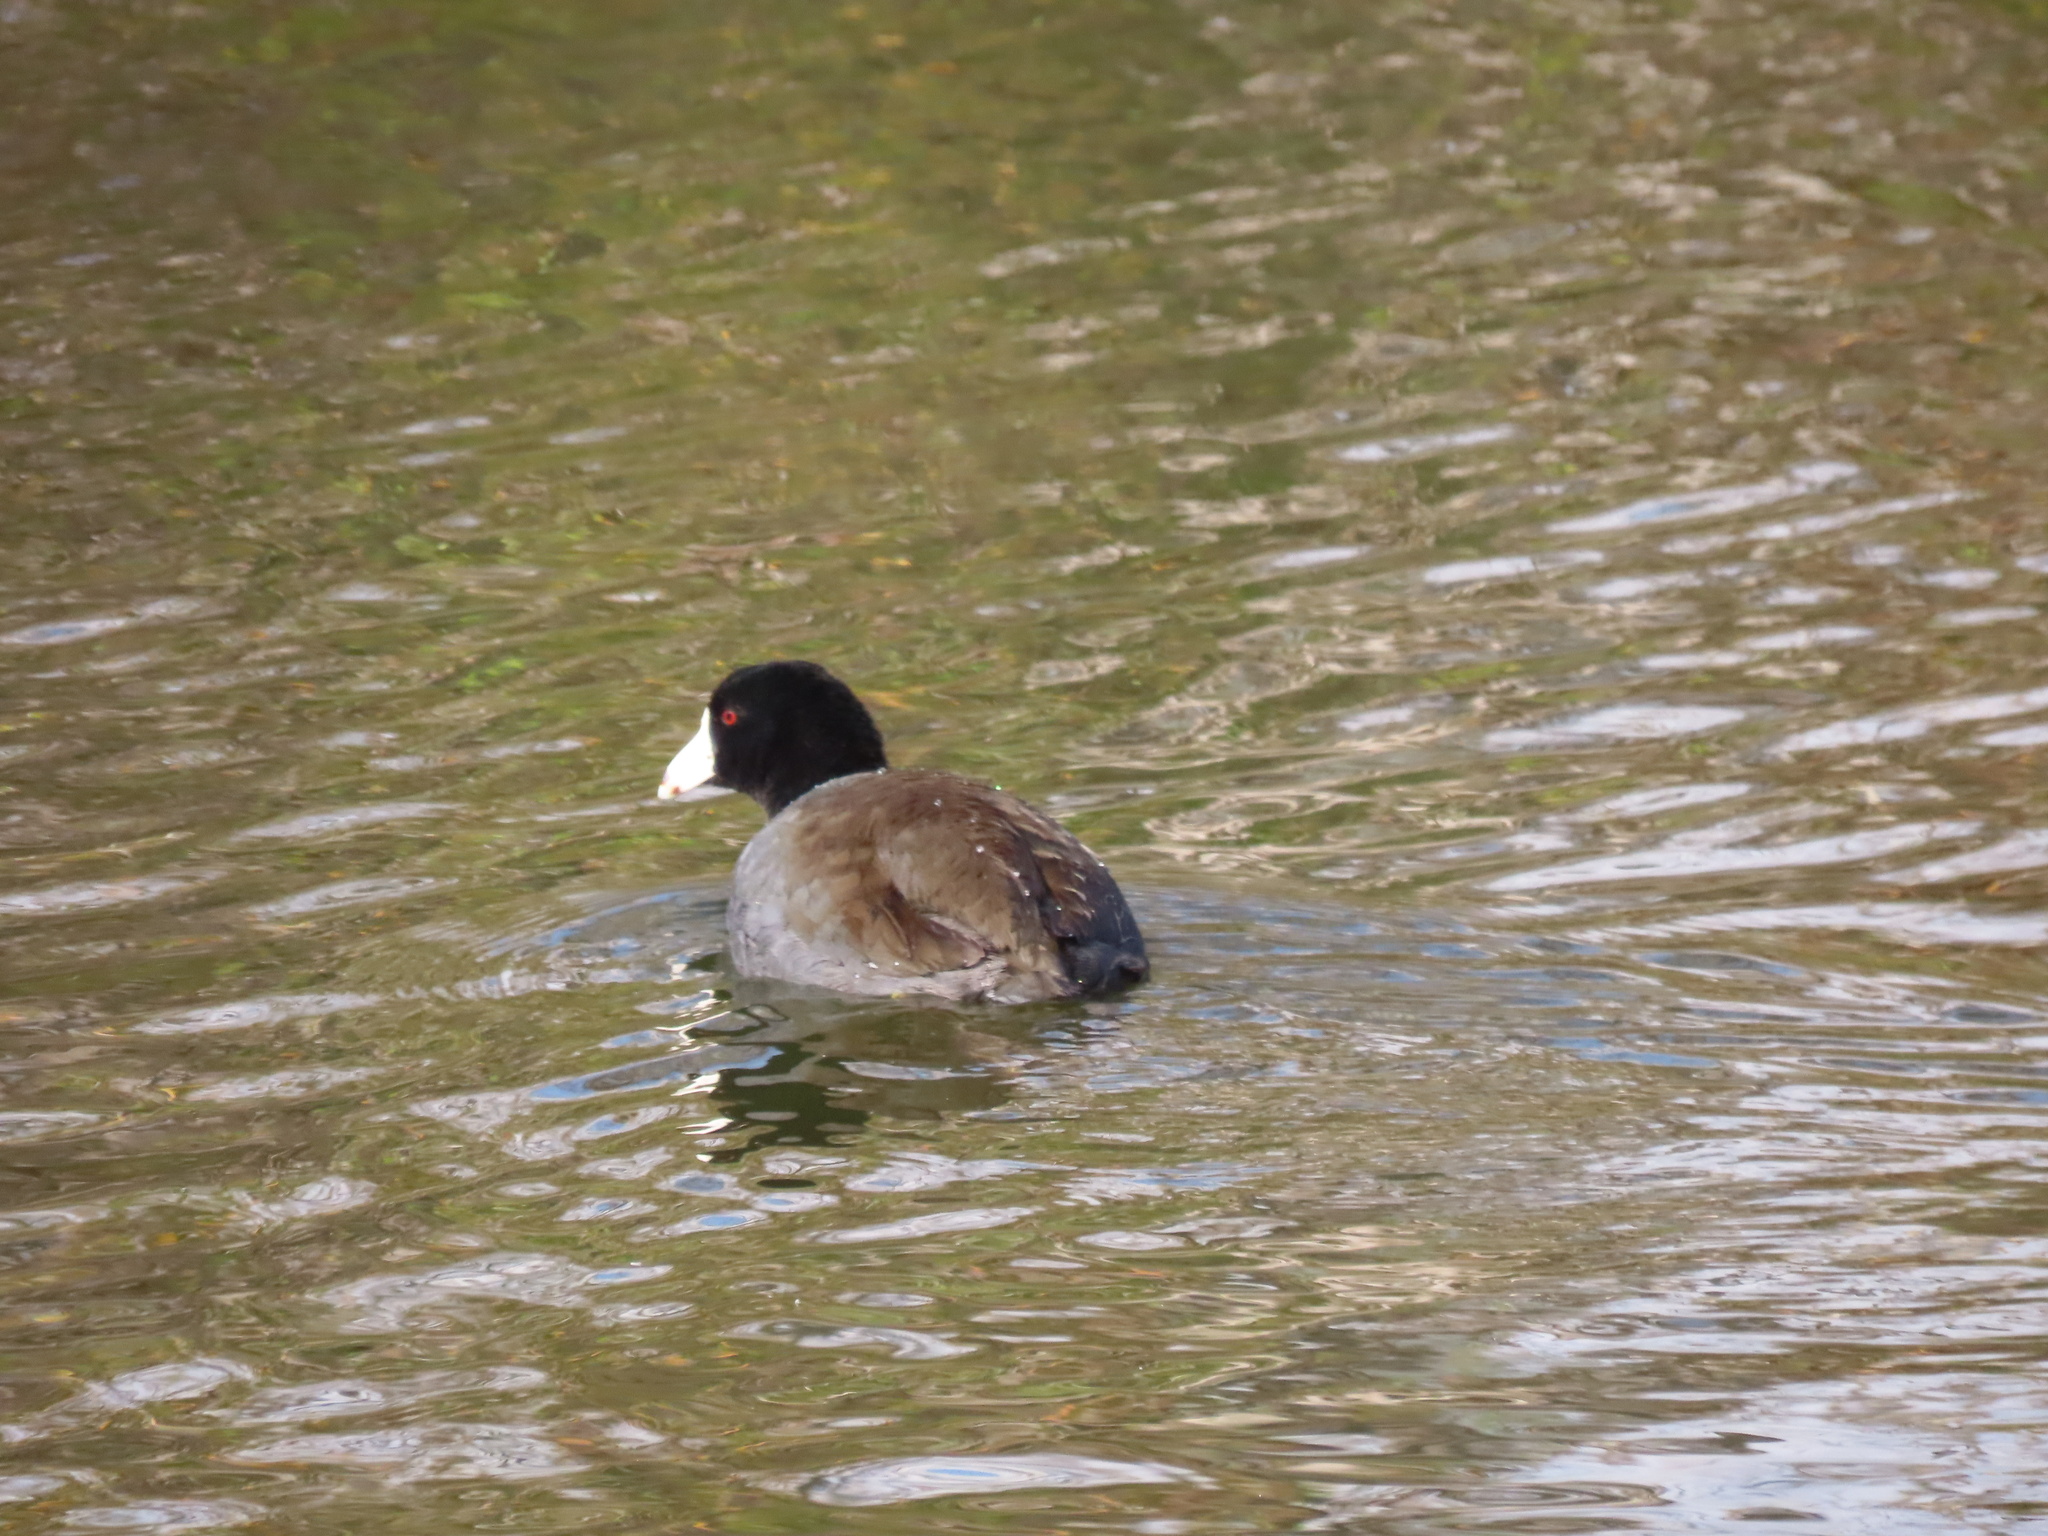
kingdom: Animalia
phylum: Chordata
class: Aves
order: Gruiformes
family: Rallidae
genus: Fulica
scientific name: Fulica americana
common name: American coot
